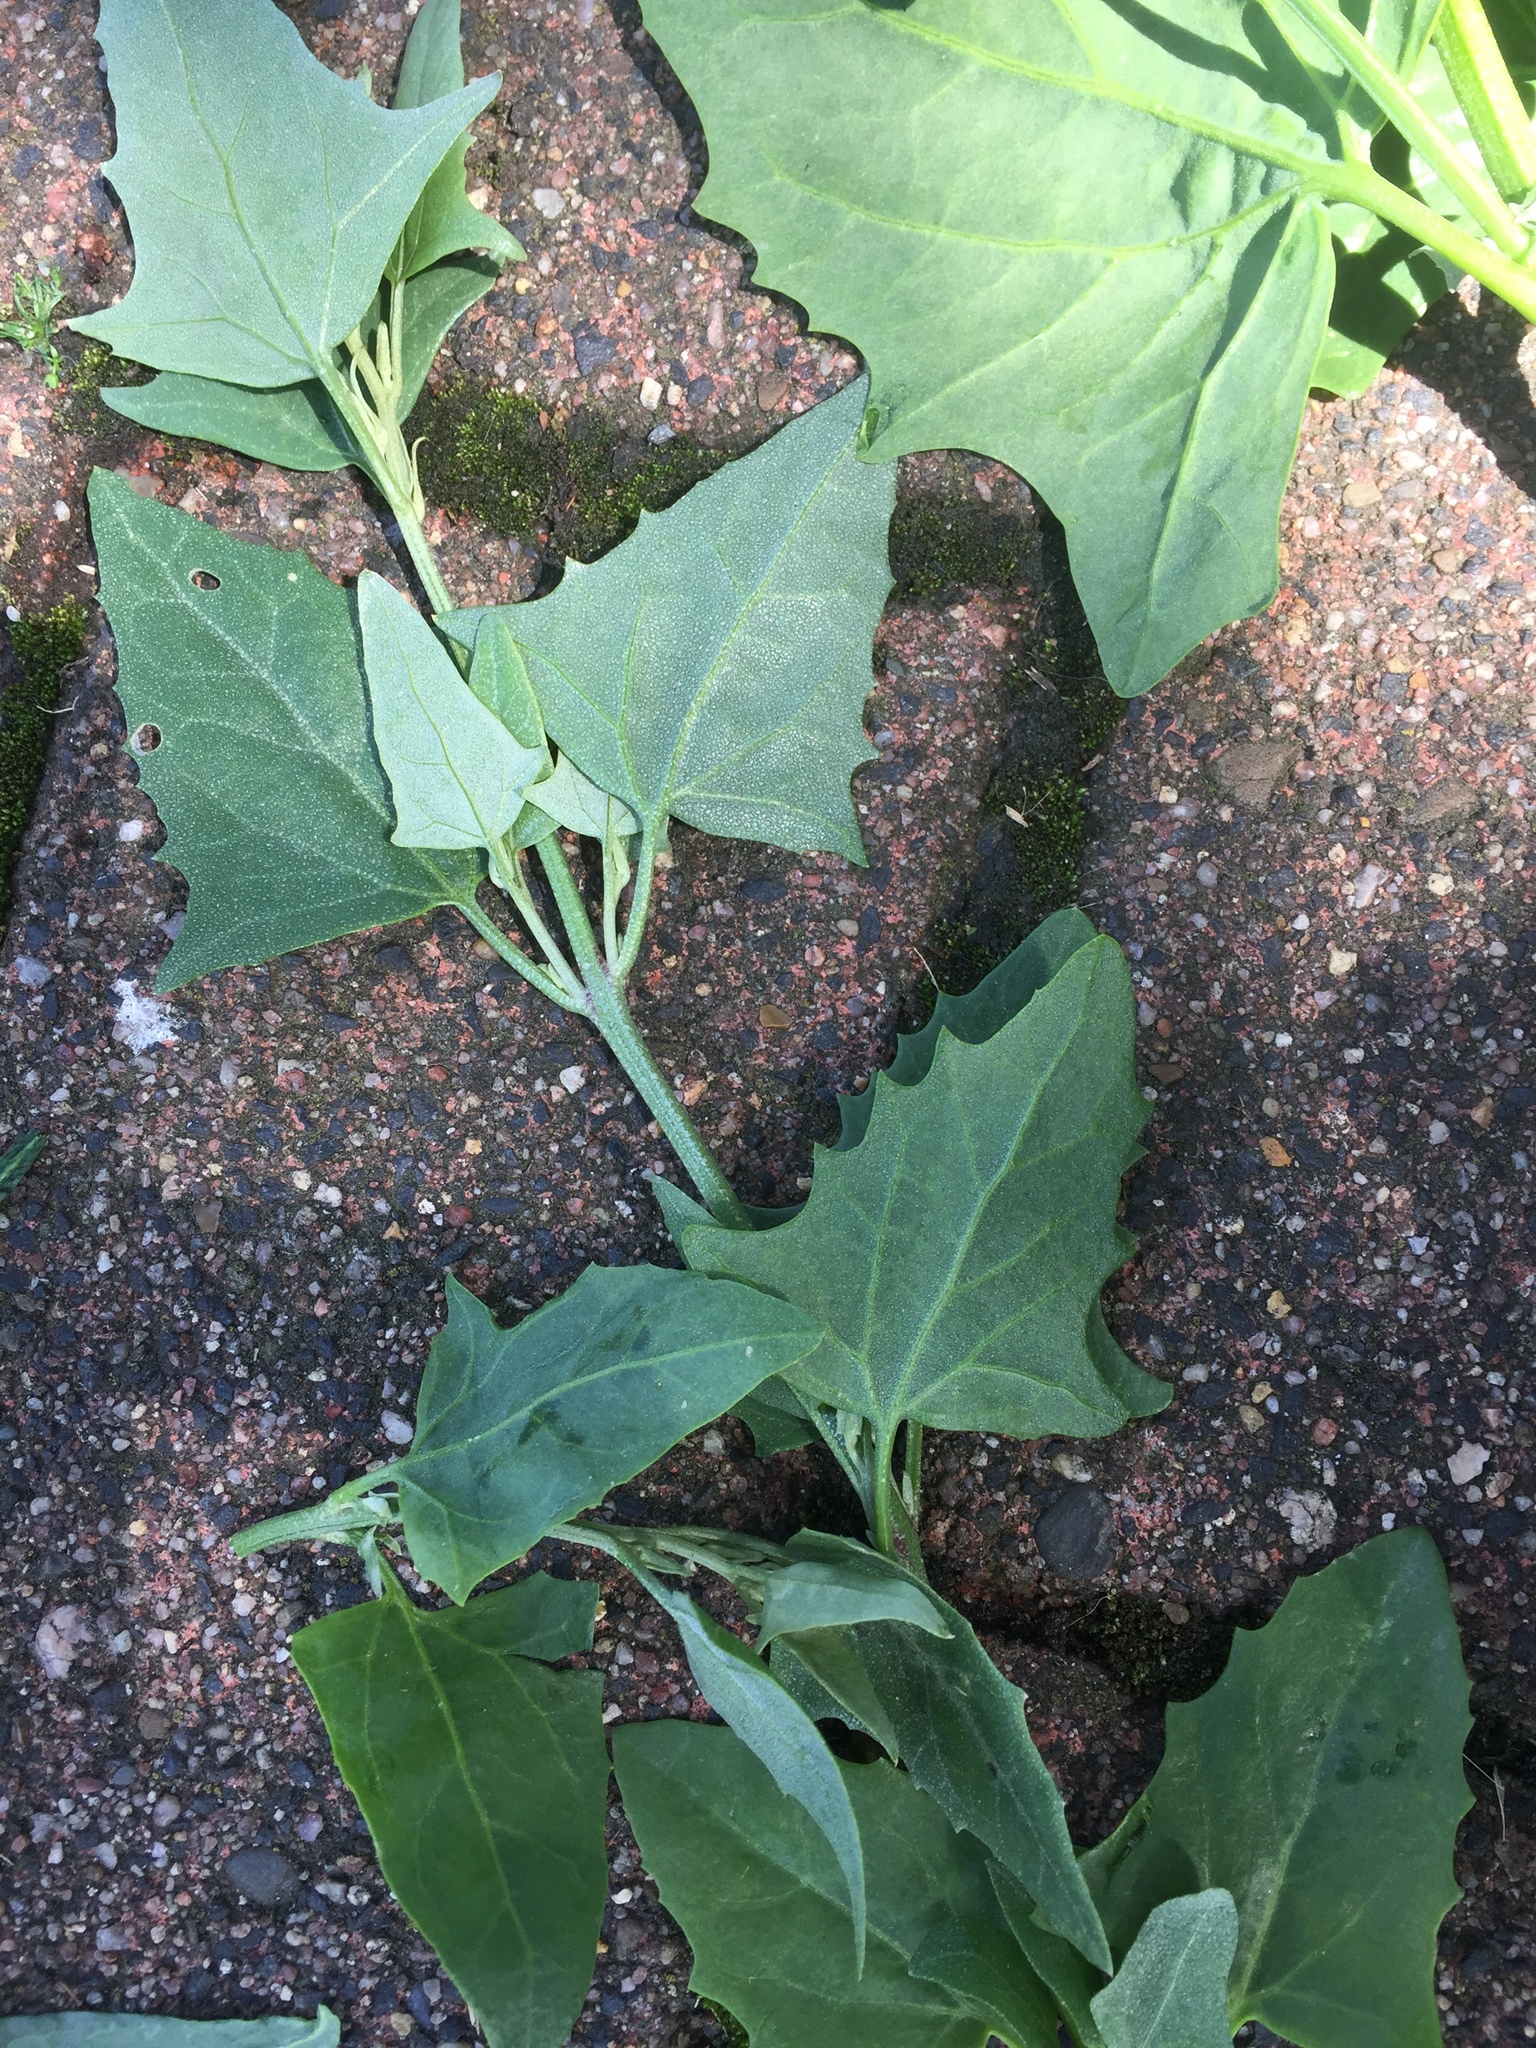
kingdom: Plantae
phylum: Tracheophyta
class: Magnoliopsida
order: Caryophyllales
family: Amaranthaceae
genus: Atriplex
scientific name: Atriplex micrantha
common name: Twoscale saltbush
